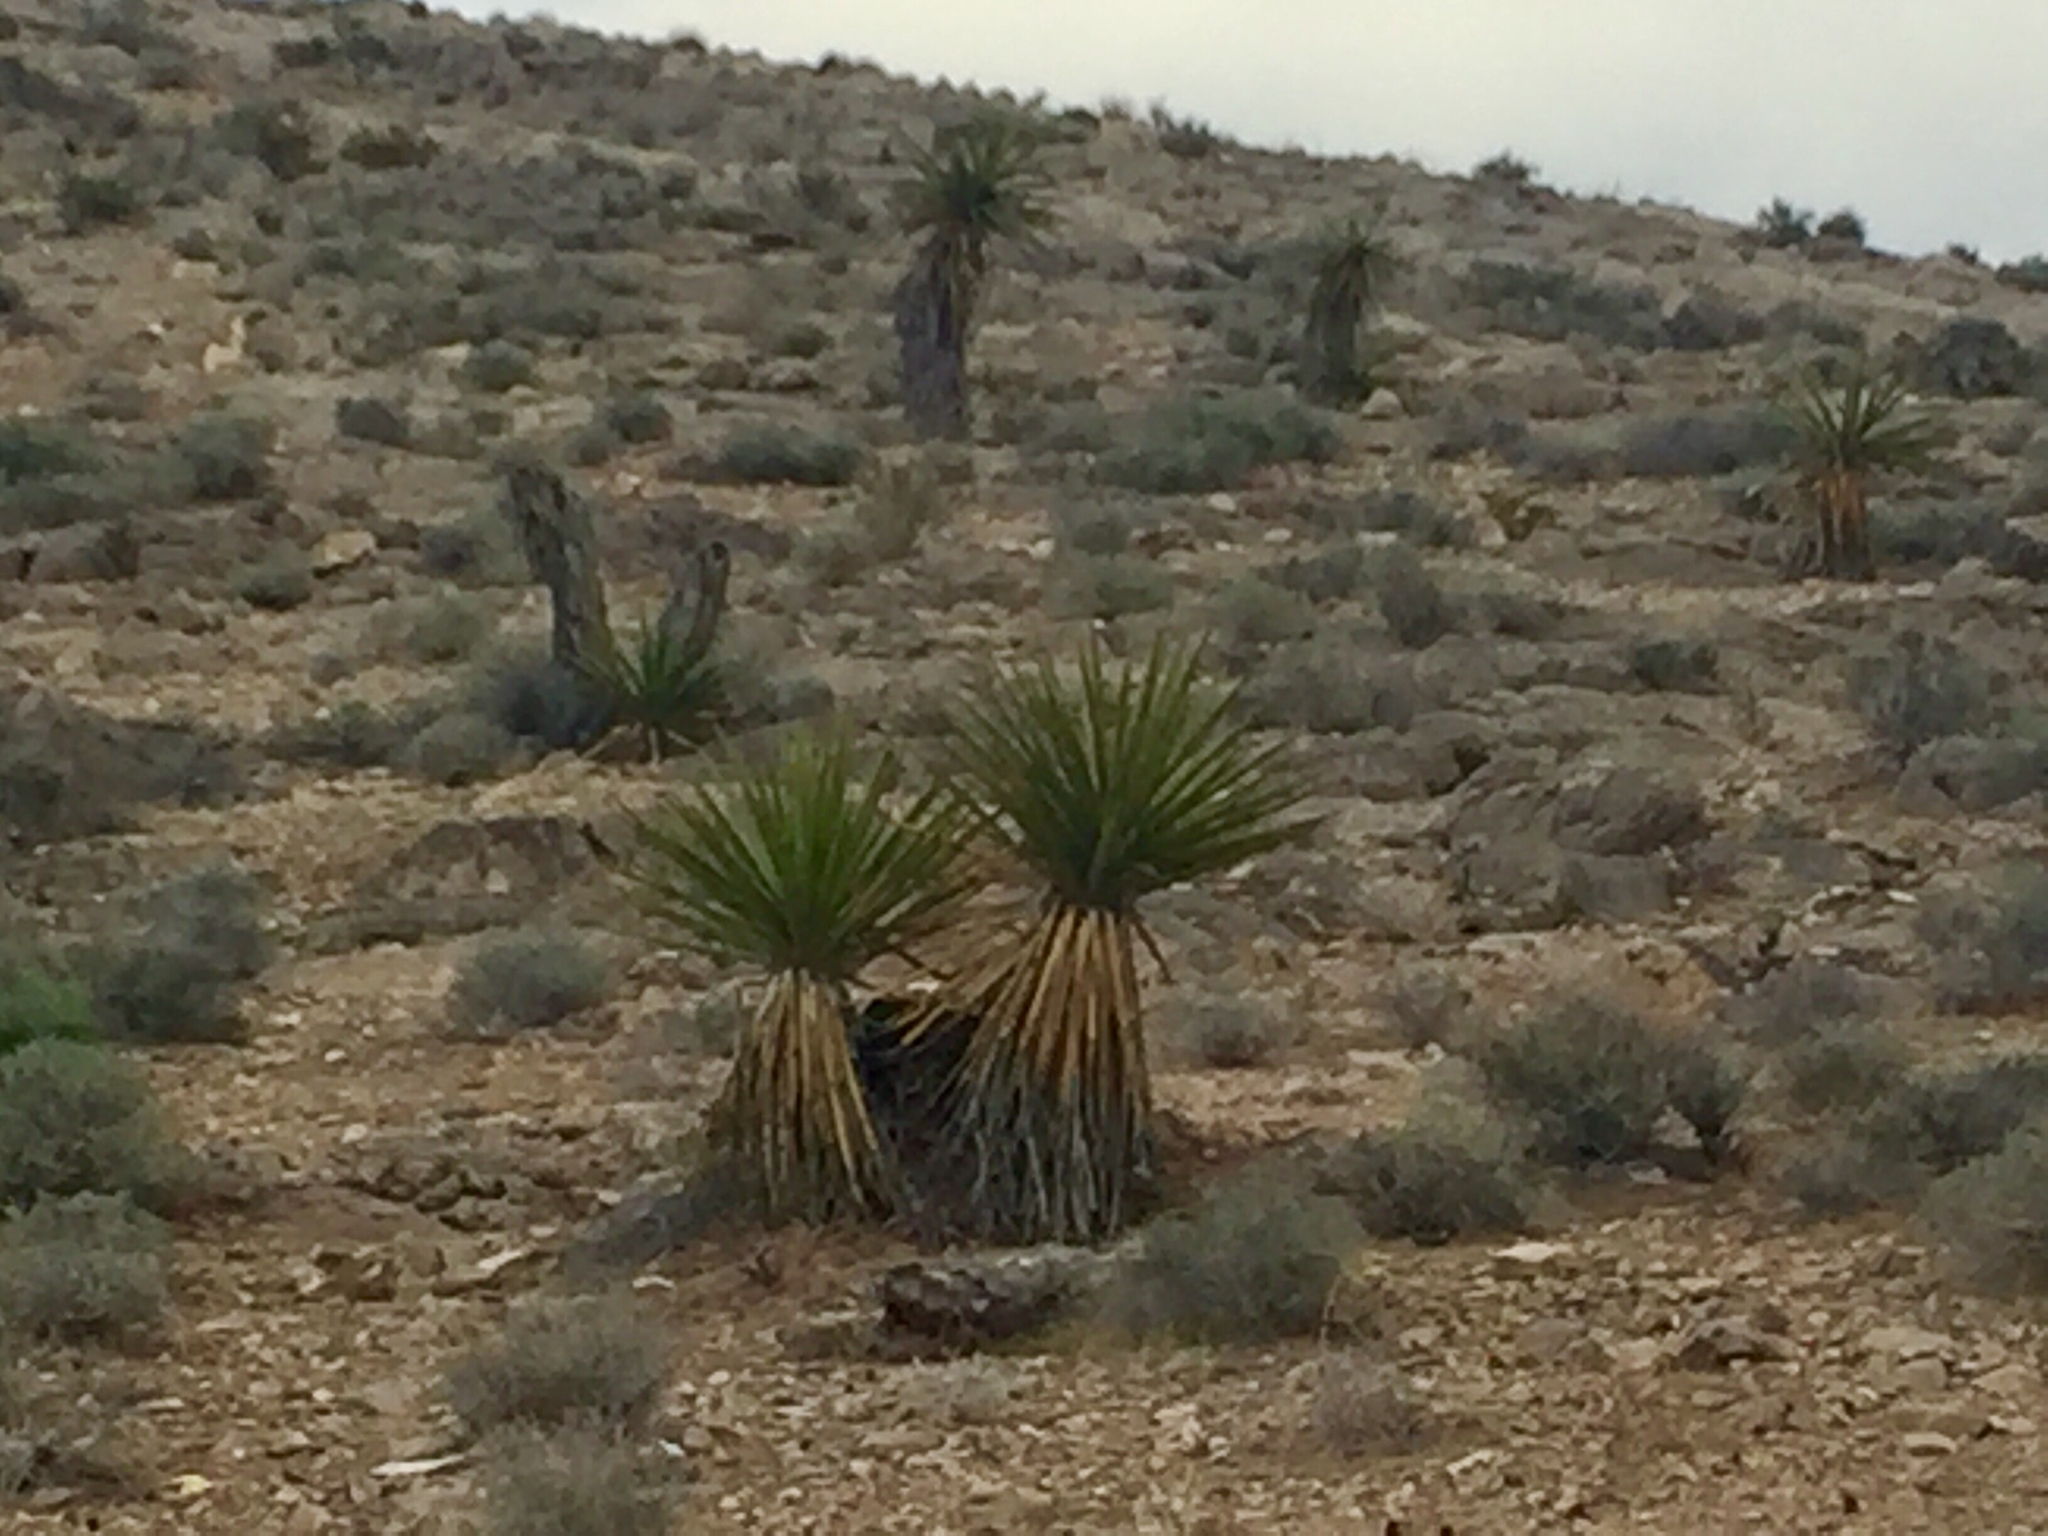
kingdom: Plantae
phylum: Tracheophyta
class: Liliopsida
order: Asparagales
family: Asparagaceae
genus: Yucca
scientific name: Yucca schidigera
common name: Mojave yucca
